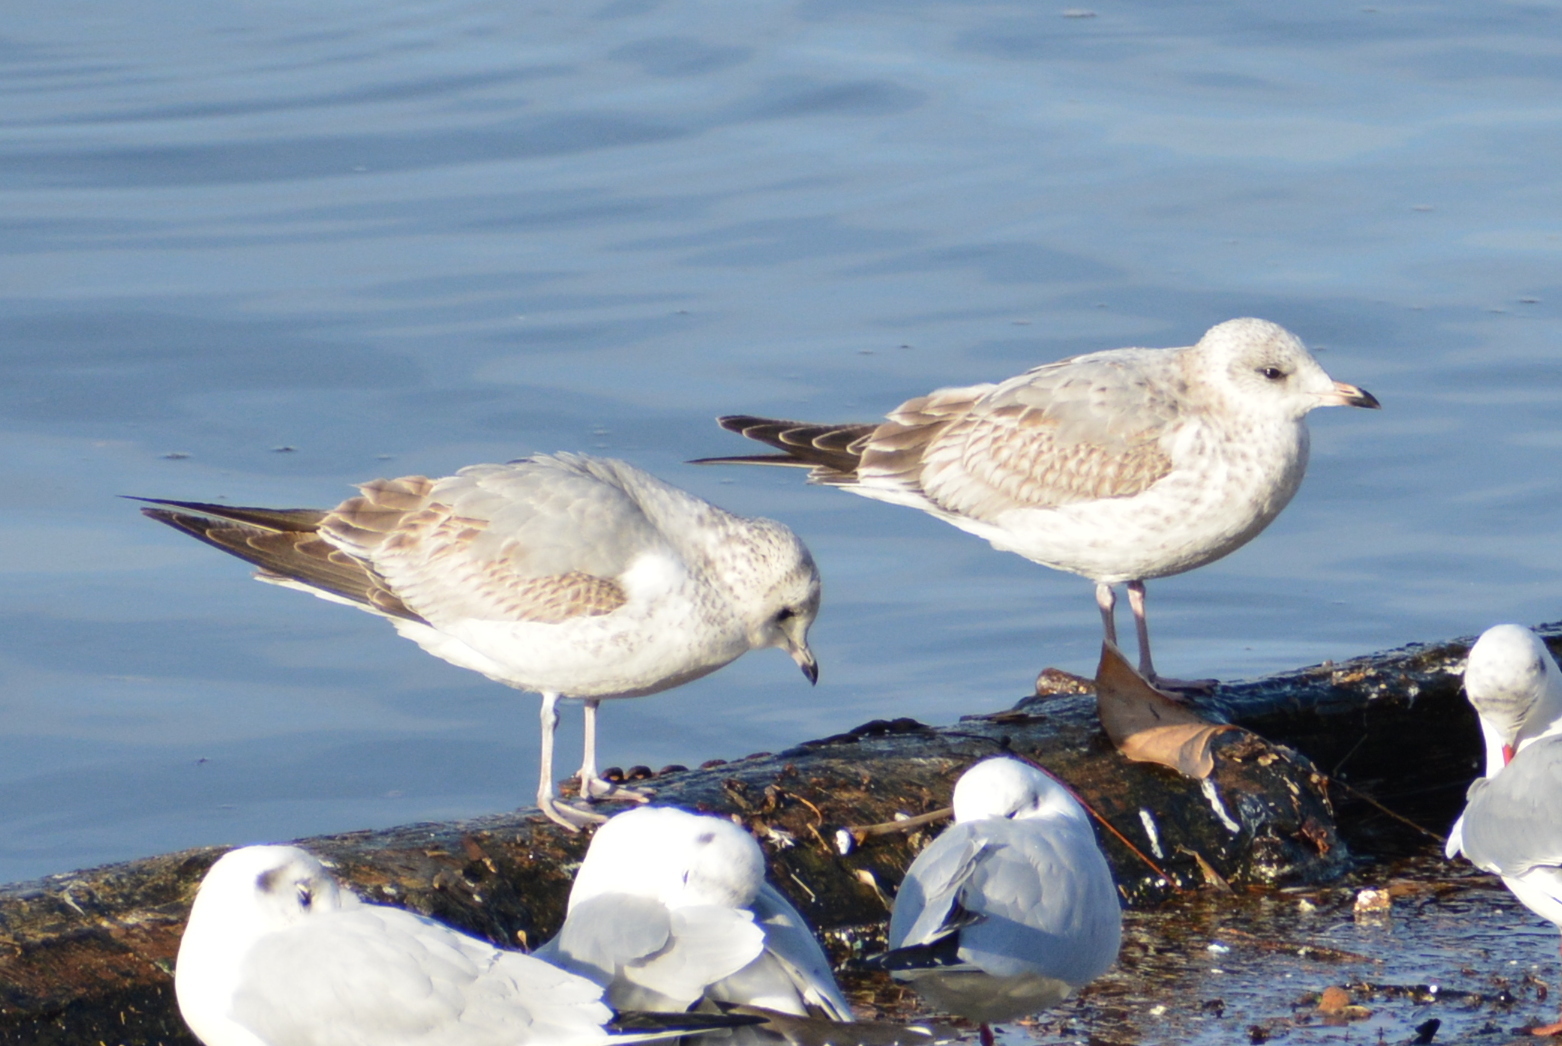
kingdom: Animalia
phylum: Chordata
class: Aves
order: Charadriiformes
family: Laridae
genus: Larus
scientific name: Larus canus
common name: Mew gull
